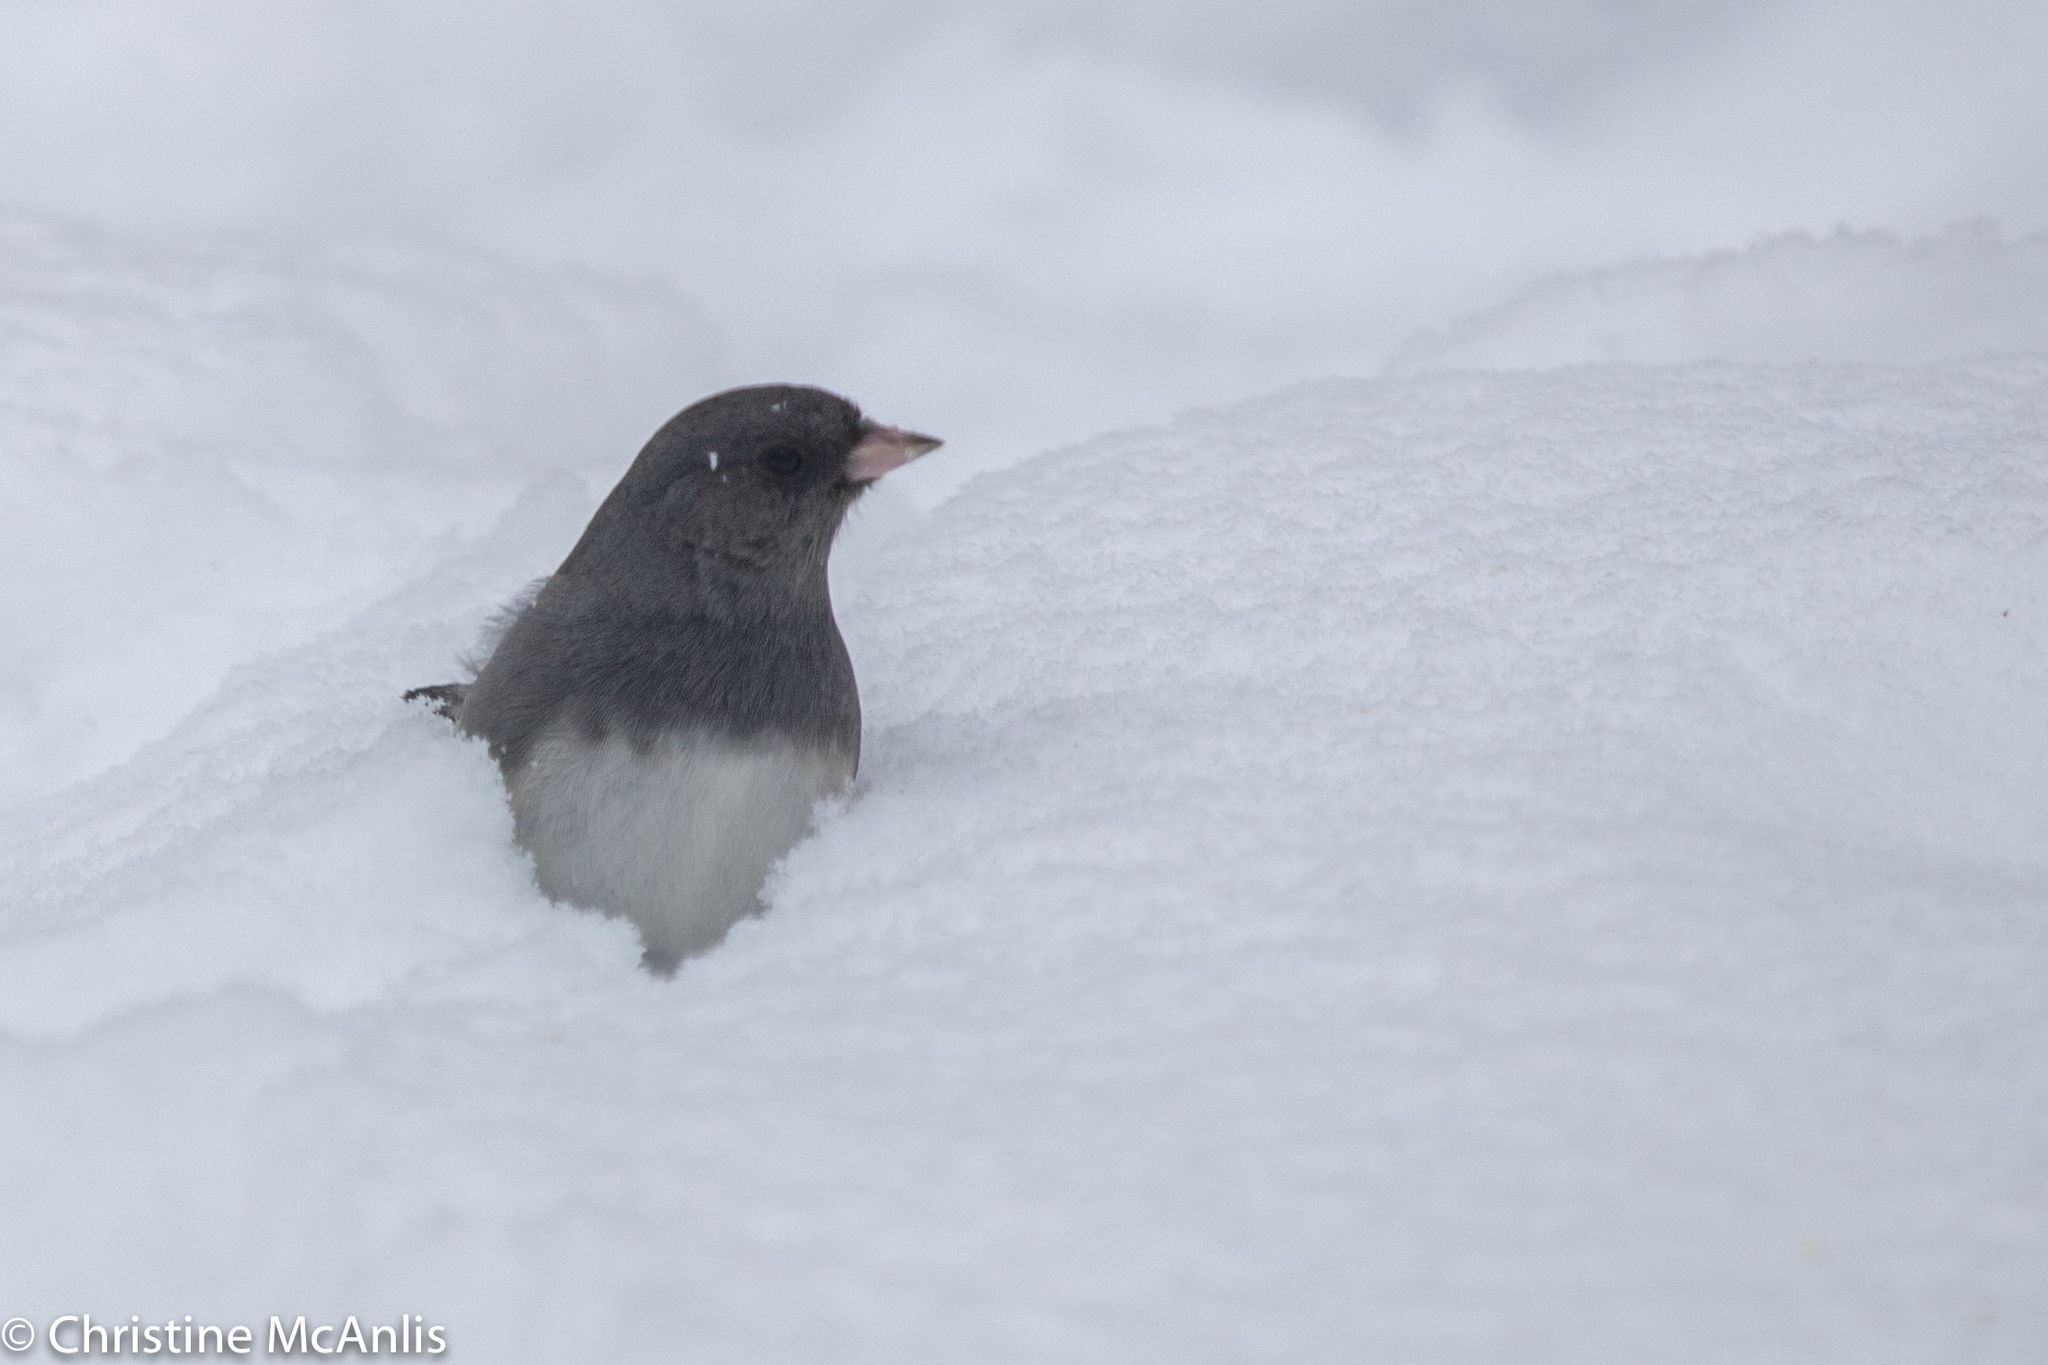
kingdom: Animalia
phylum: Chordata
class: Aves
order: Passeriformes
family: Passerellidae
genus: Junco
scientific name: Junco hyemalis
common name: Dark-eyed junco
